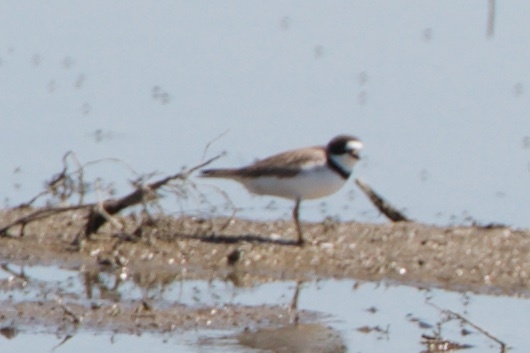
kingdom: Animalia
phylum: Chordata
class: Aves
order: Charadriiformes
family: Charadriidae
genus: Charadrius
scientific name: Charadrius semipalmatus
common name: Semipalmated plover
